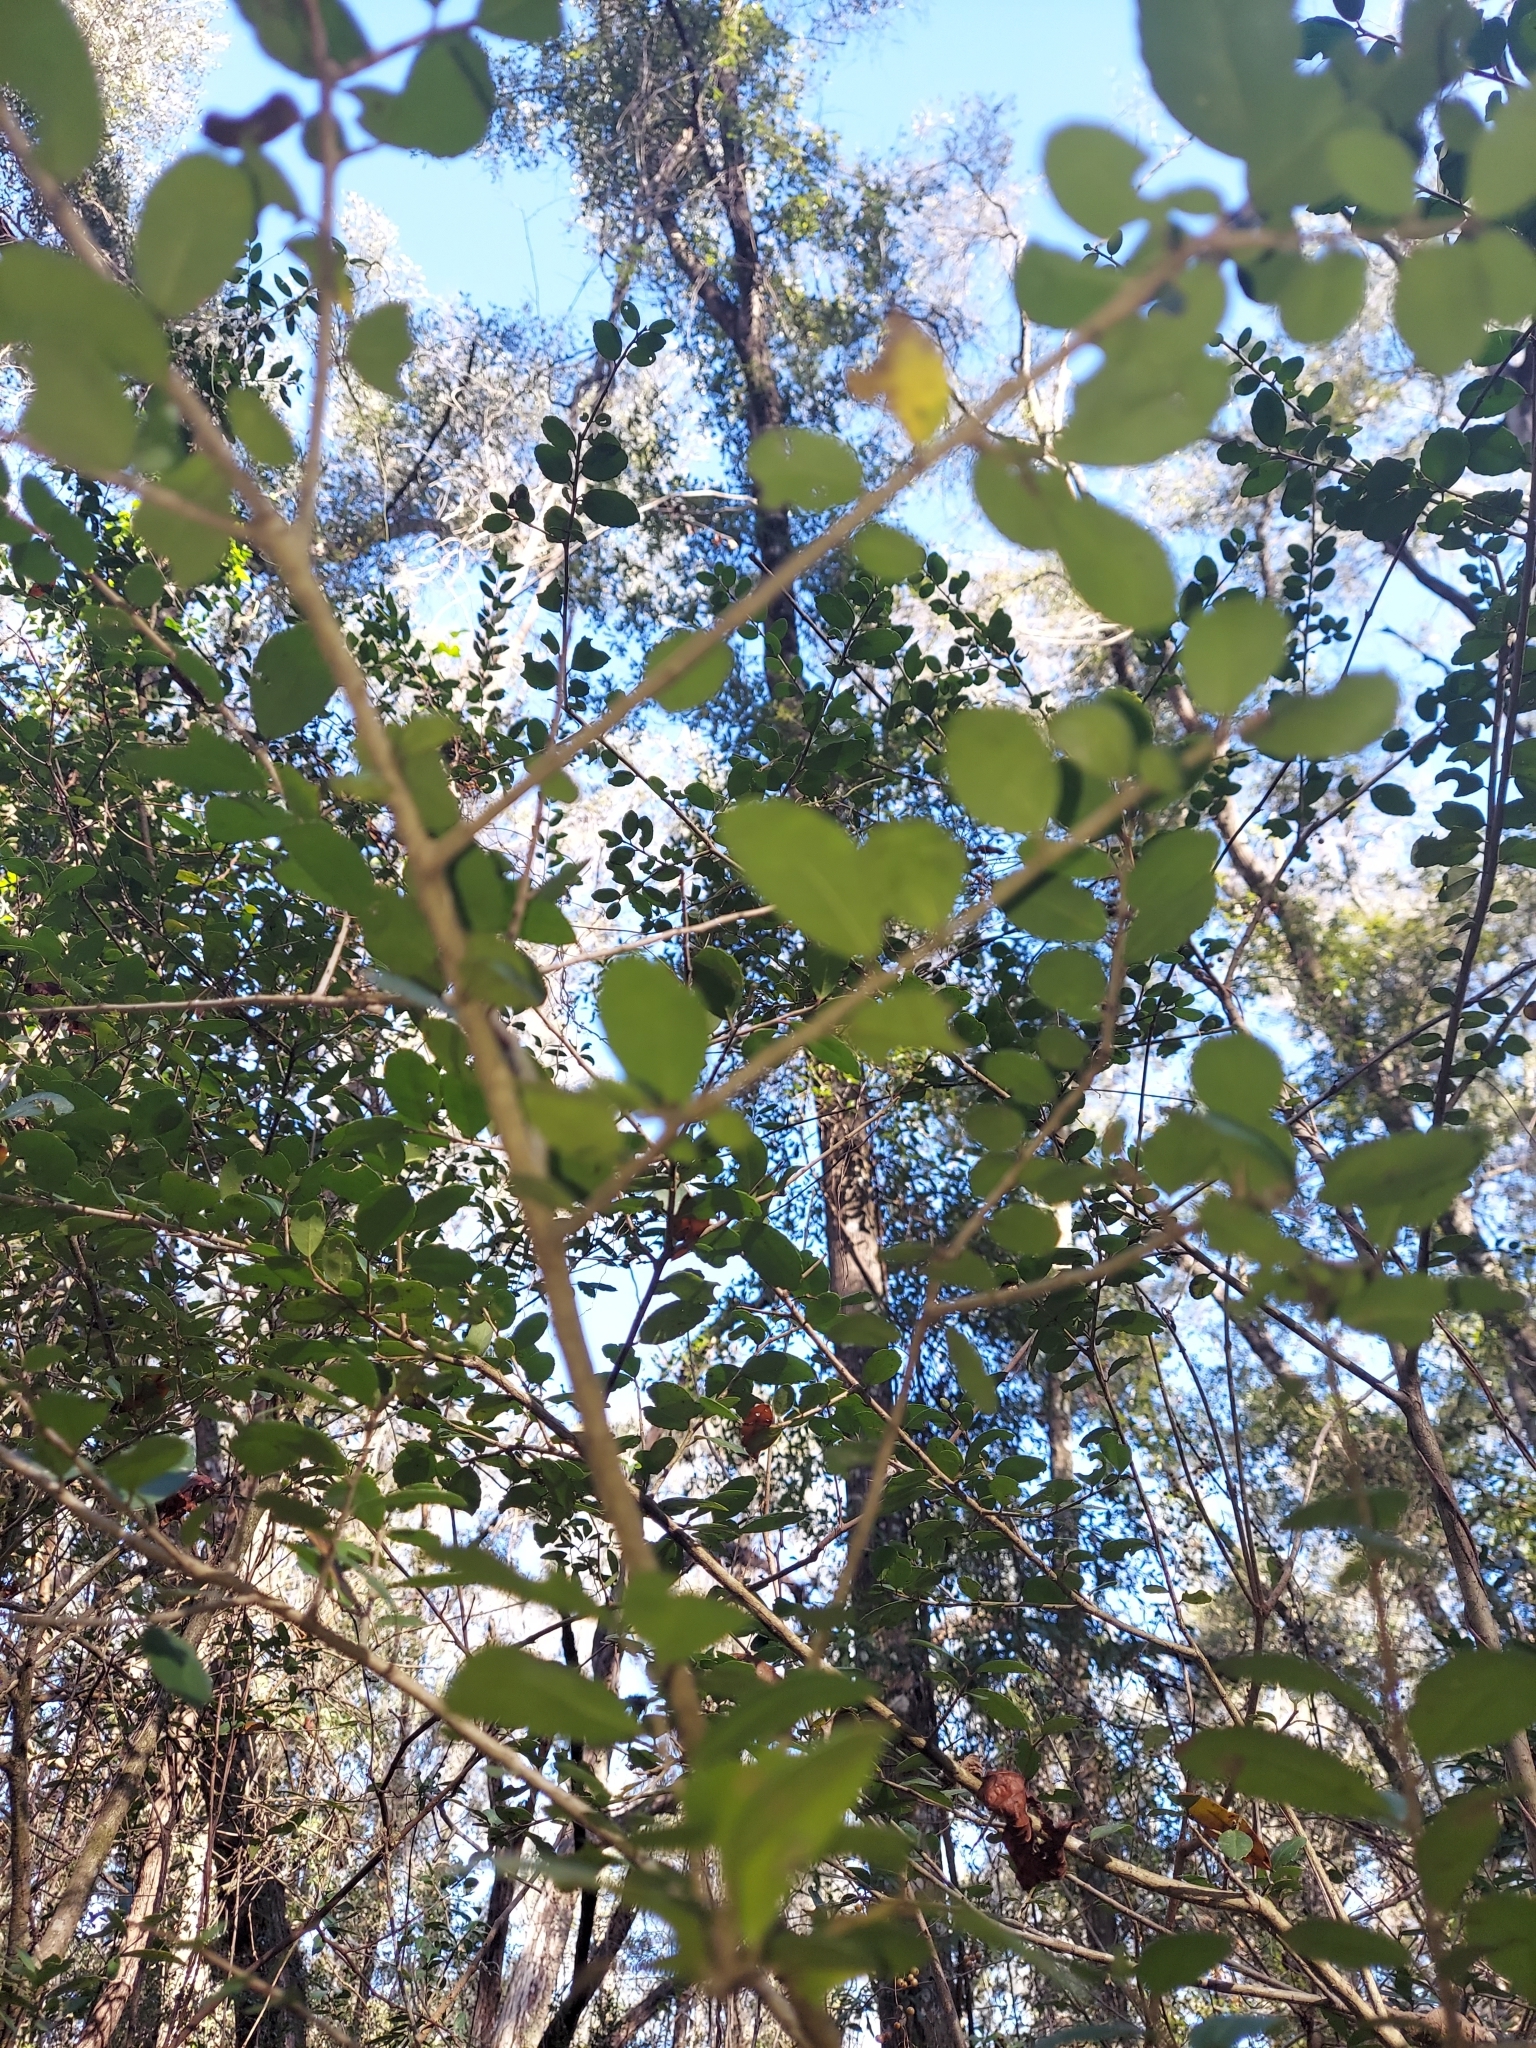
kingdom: Plantae
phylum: Tracheophyta
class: Magnoliopsida
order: Aquifoliales
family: Aquifoliaceae
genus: Ilex
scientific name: Ilex vomitoria
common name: Yaupon holly
